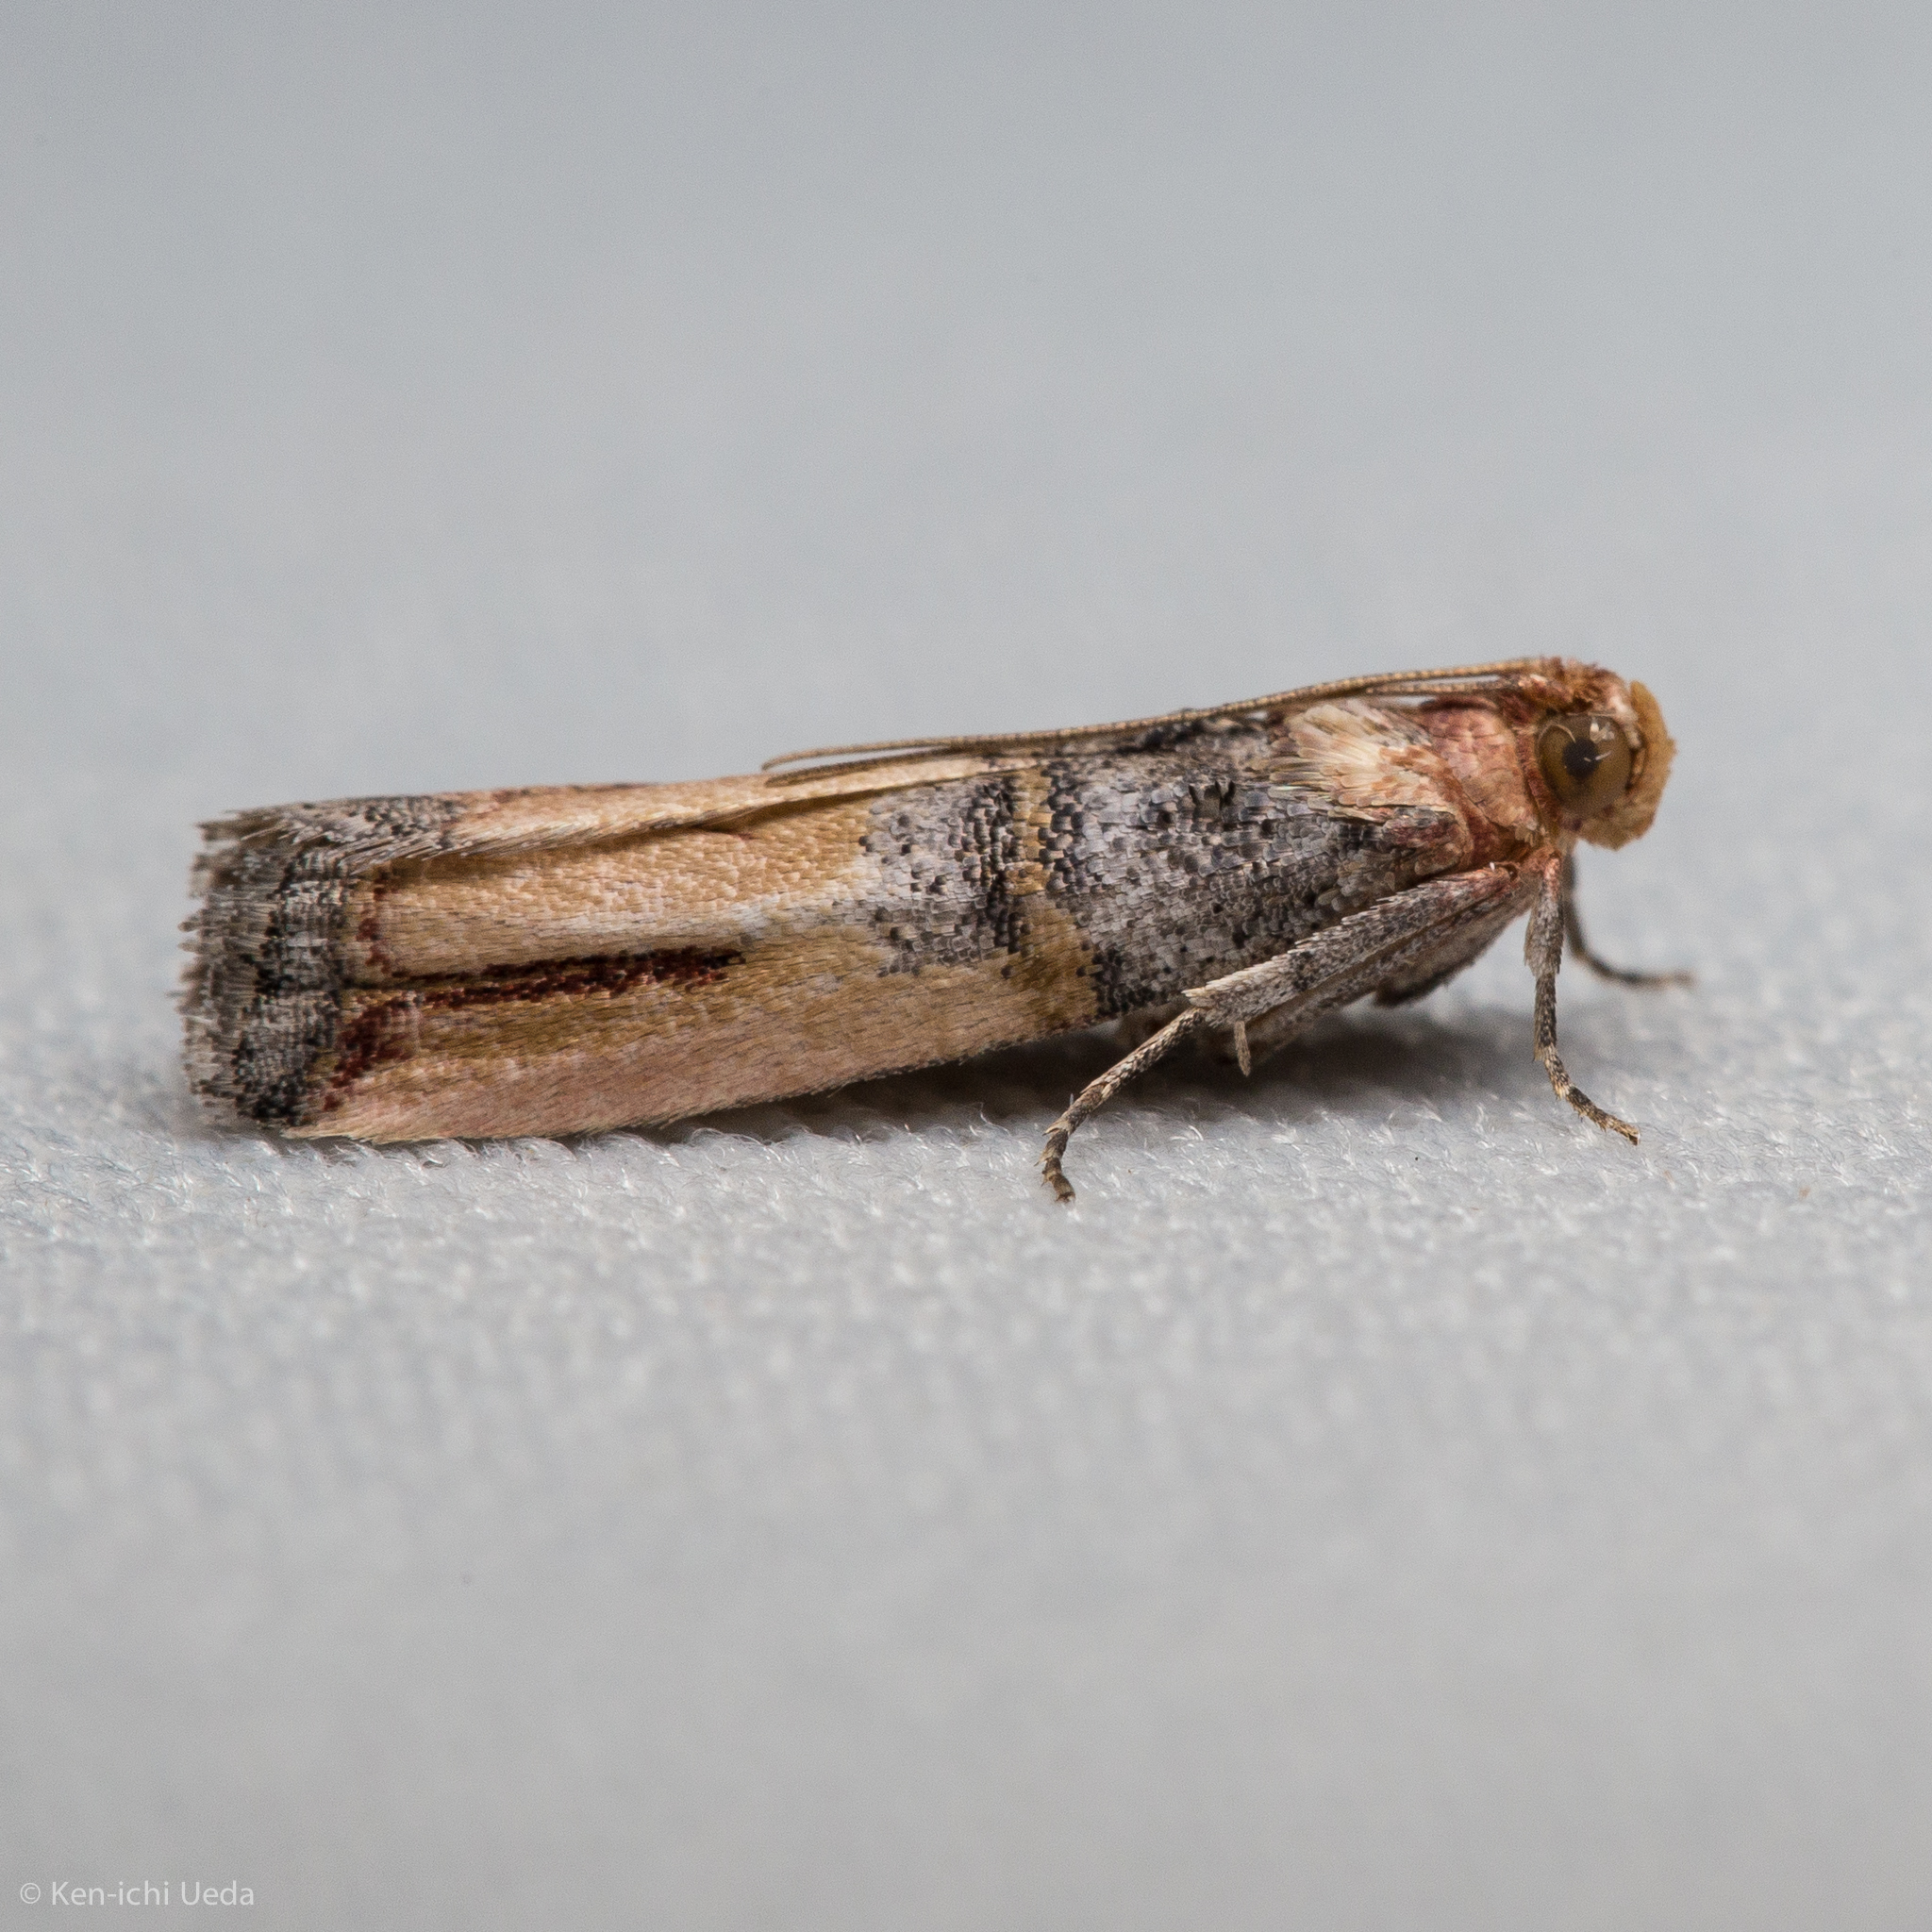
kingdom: Animalia
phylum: Arthropoda
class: Insecta
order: Lepidoptera
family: Pyralidae
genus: Dasypyga
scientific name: Dasypyga alternosquamella
